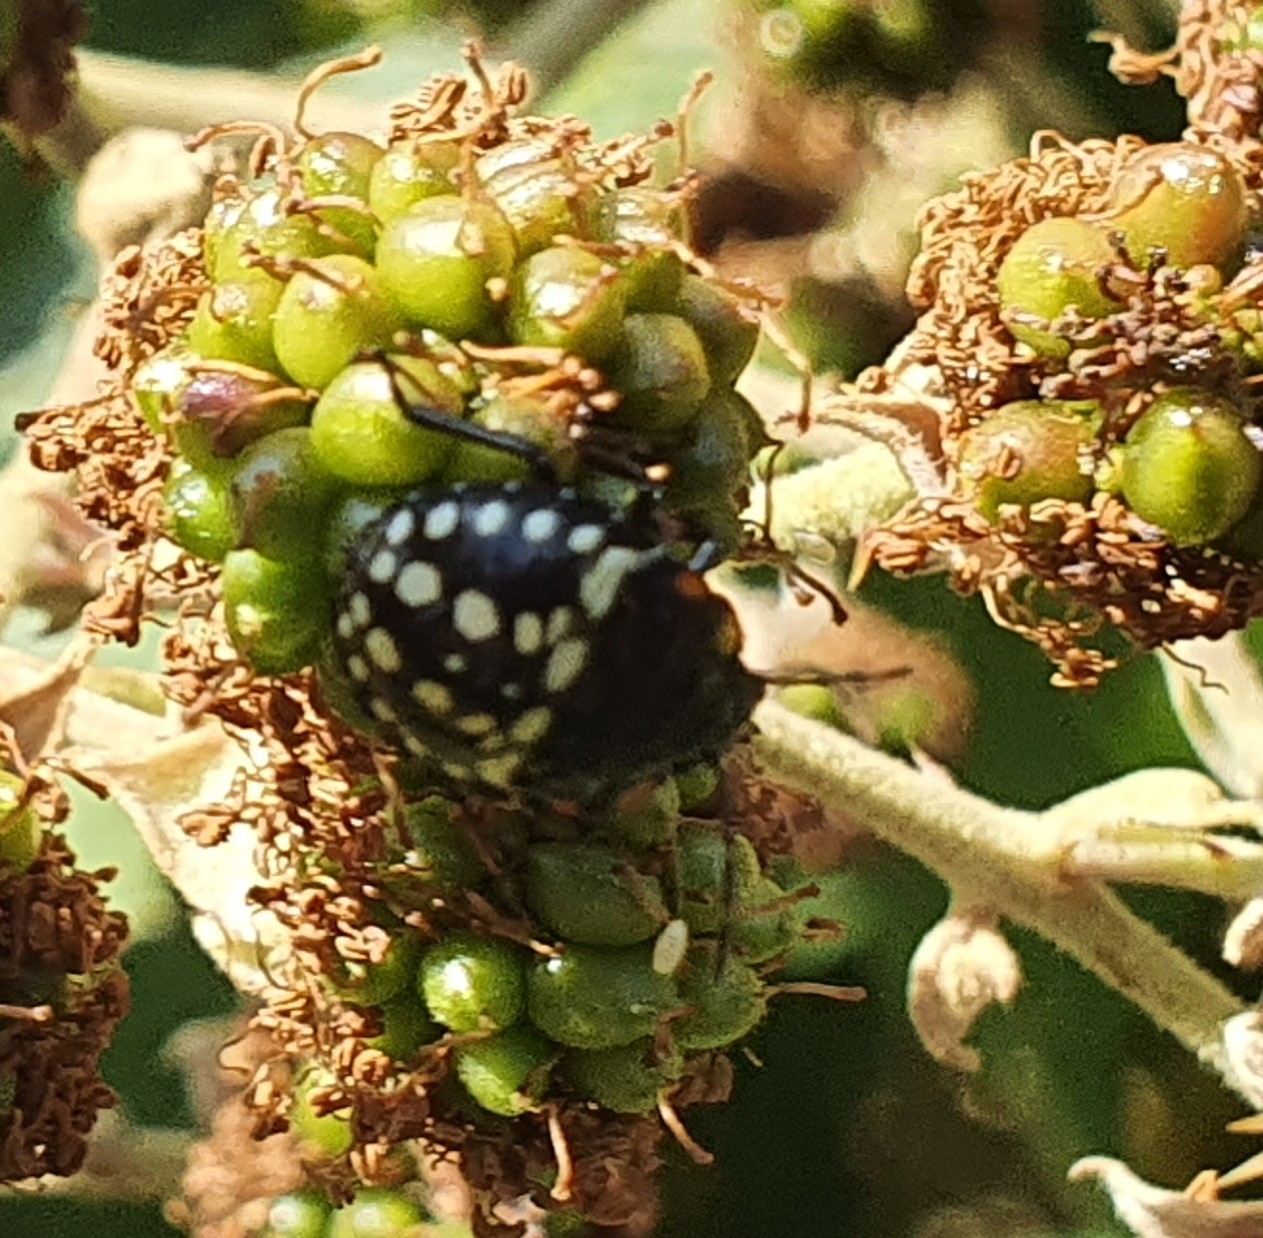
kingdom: Animalia
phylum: Arthropoda
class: Insecta
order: Hemiptera
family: Pentatomidae
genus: Nezara
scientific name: Nezara viridula
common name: Southern green stink bug
